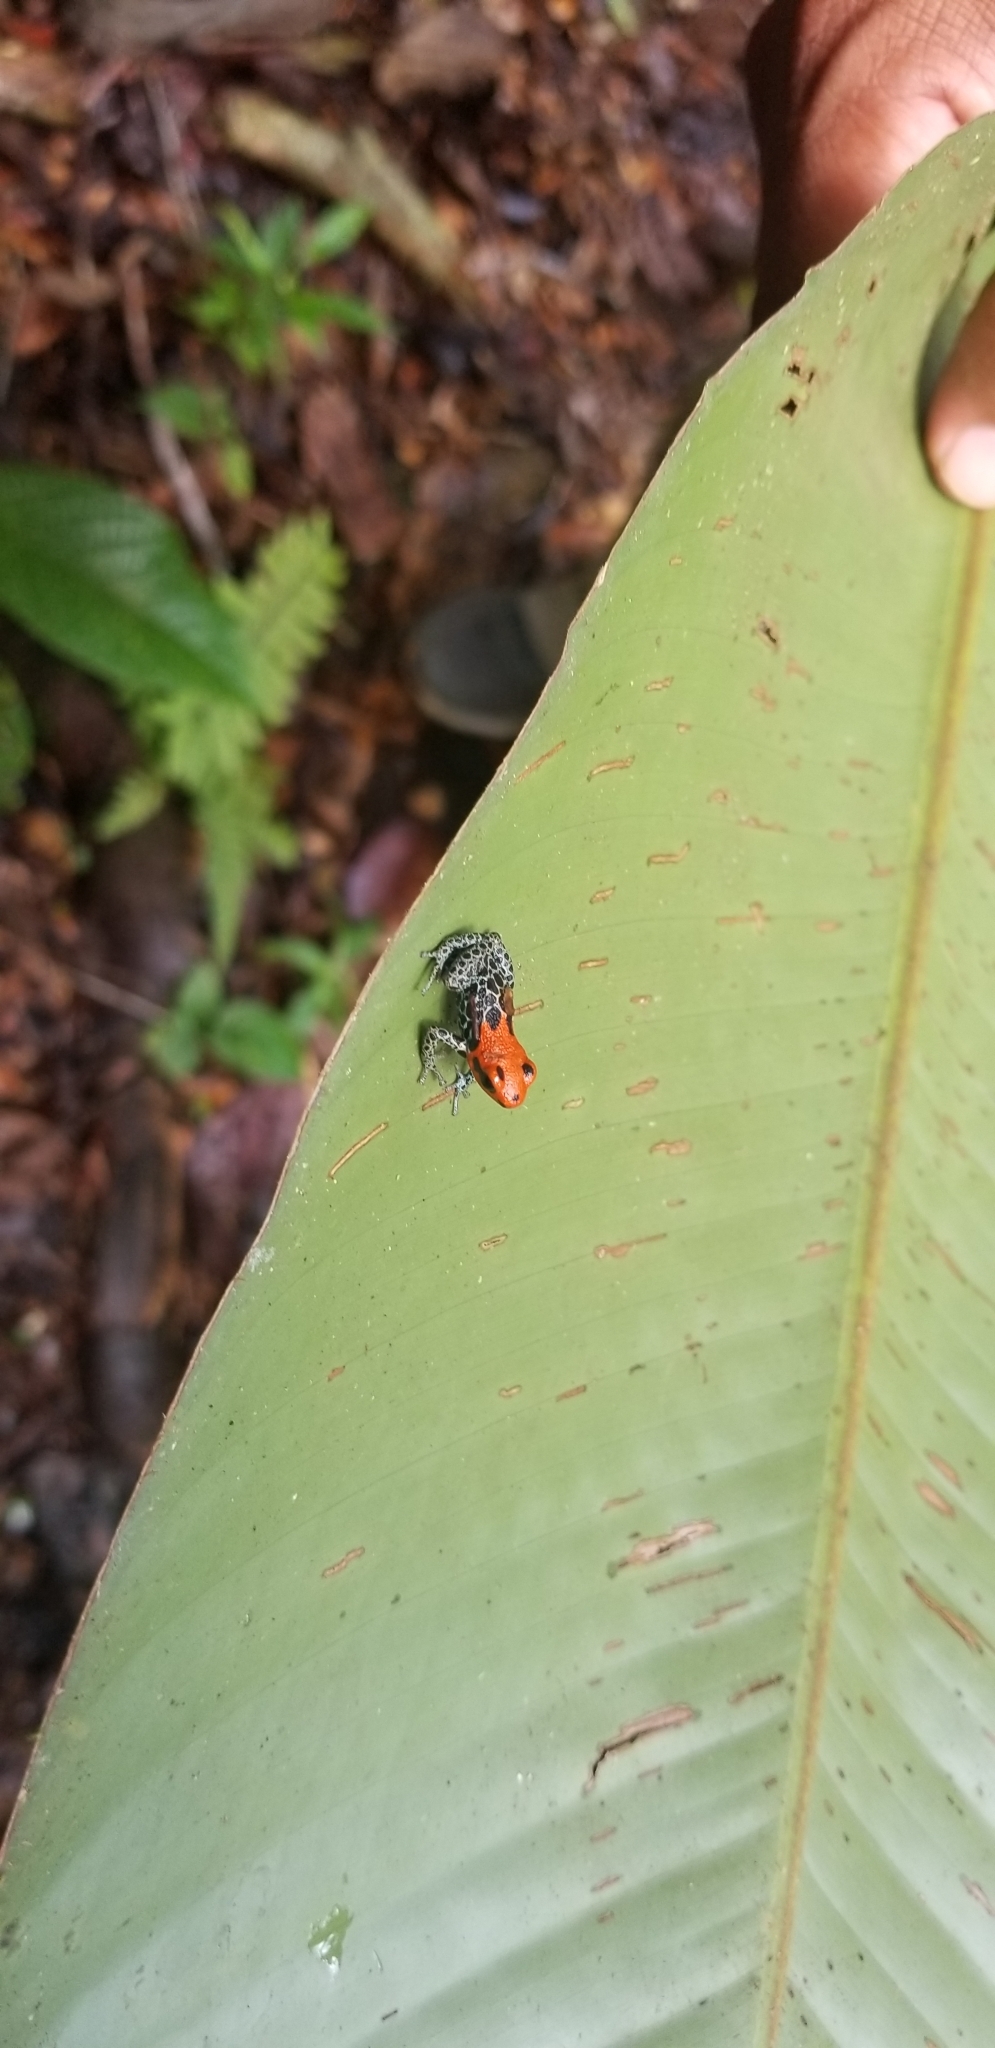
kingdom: Animalia
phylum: Chordata
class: Amphibia
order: Anura
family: Dendrobatidae
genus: Ranitomeya
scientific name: Ranitomeya reticulata
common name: Red-backed poison frog
